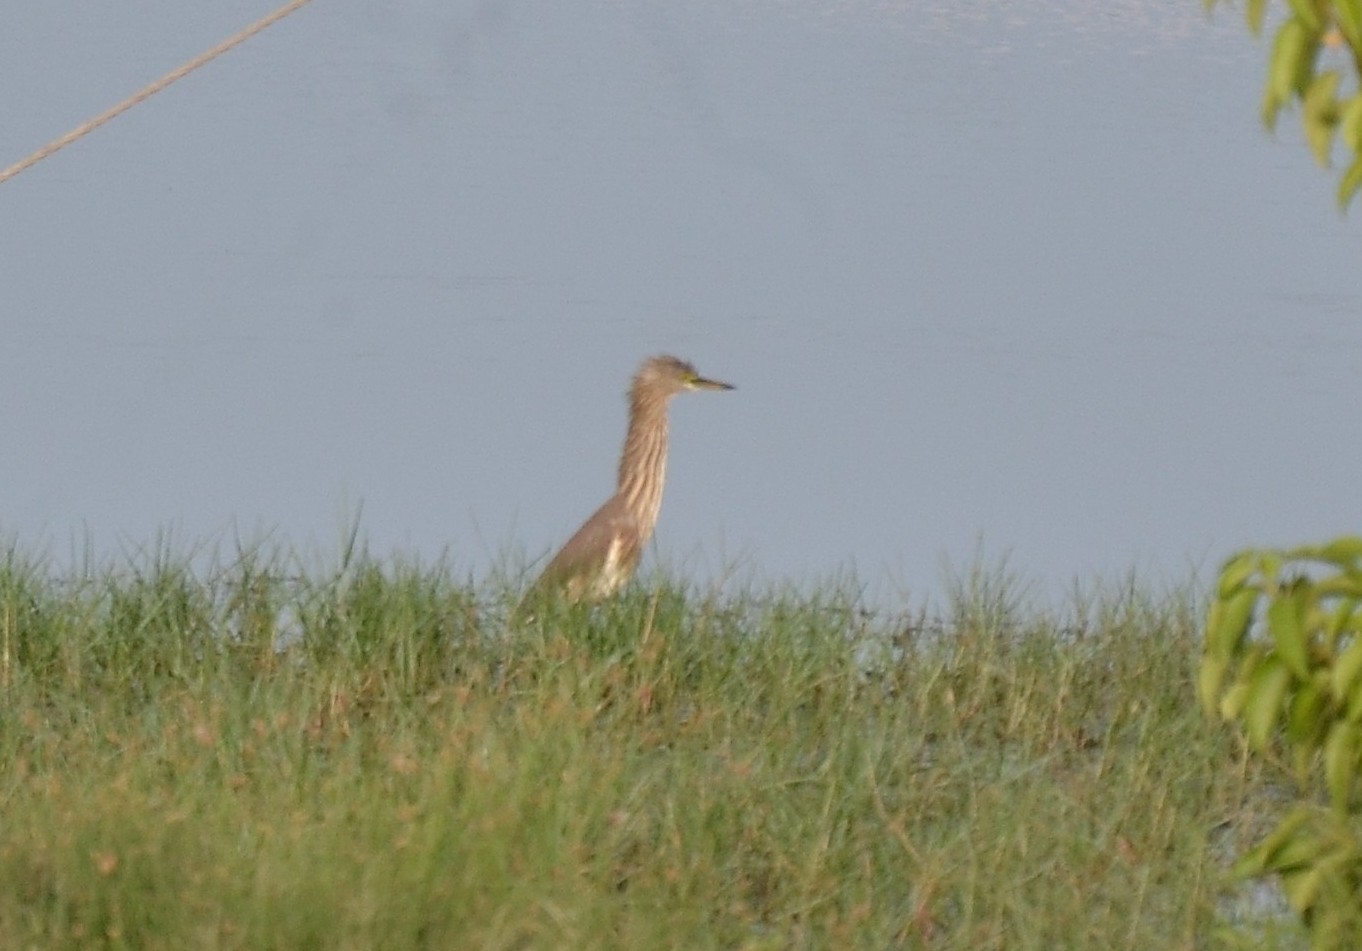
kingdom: Animalia
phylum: Chordata
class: Aves
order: Pelecaniformes
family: Ardeidae
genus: Ardeola
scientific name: Ardeola grayii
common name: Indian pond heron
